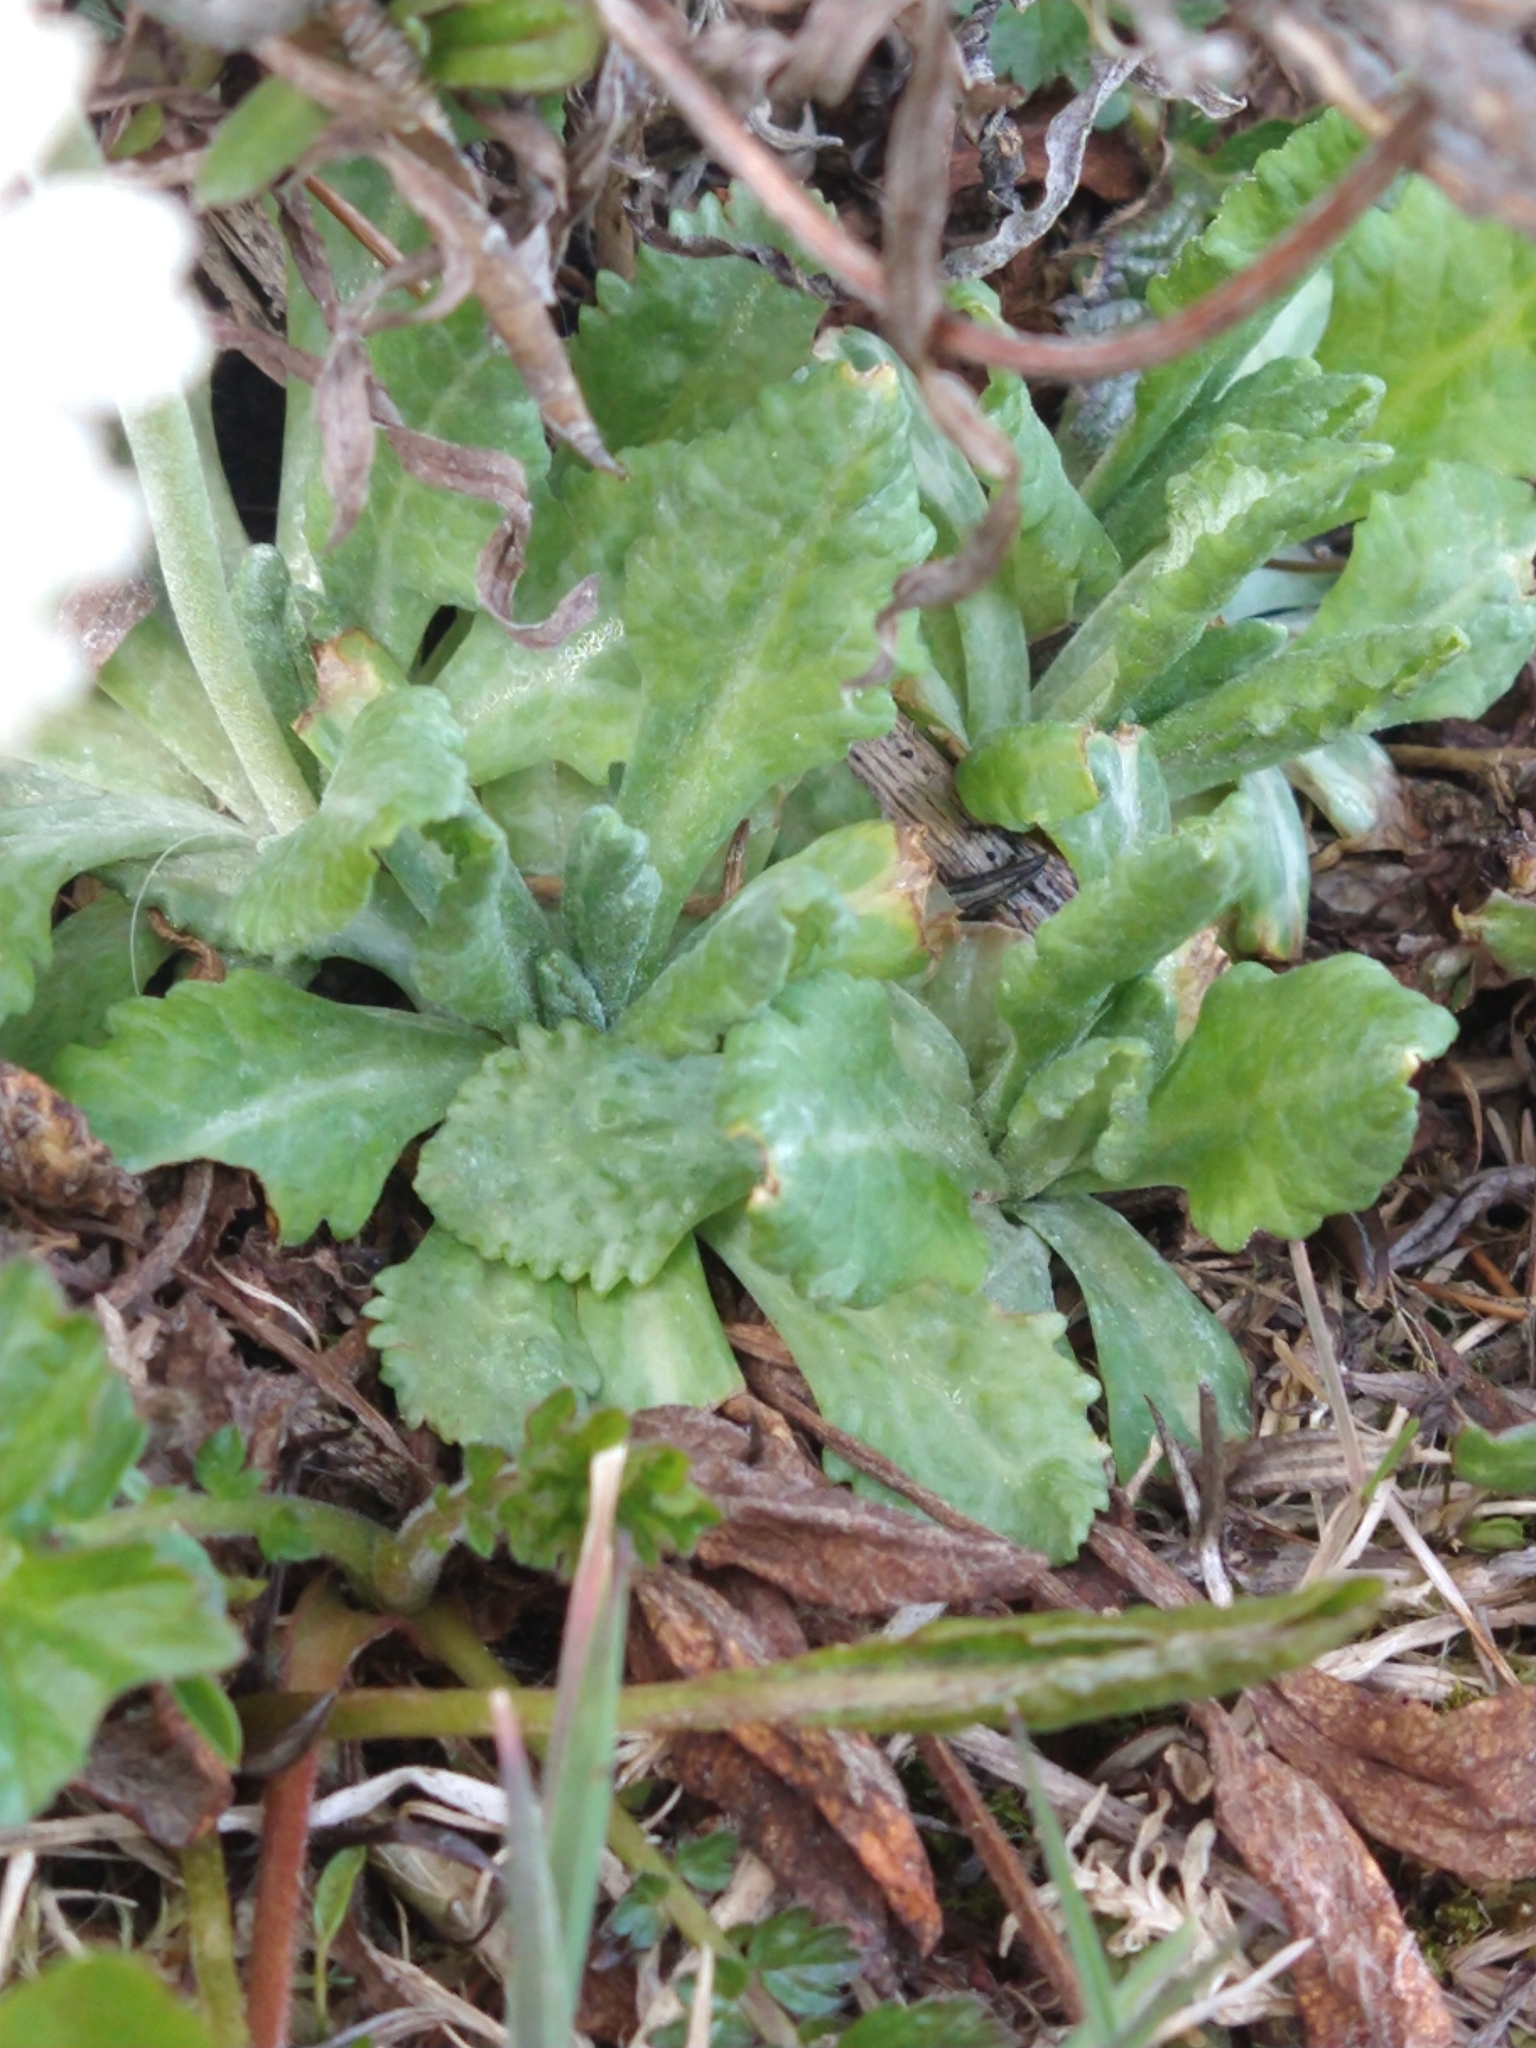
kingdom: Plantae
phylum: Tracheophyta
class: Magnoliopsida
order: Ericales
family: Primulaceae
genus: Primula
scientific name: Primula magellanica
